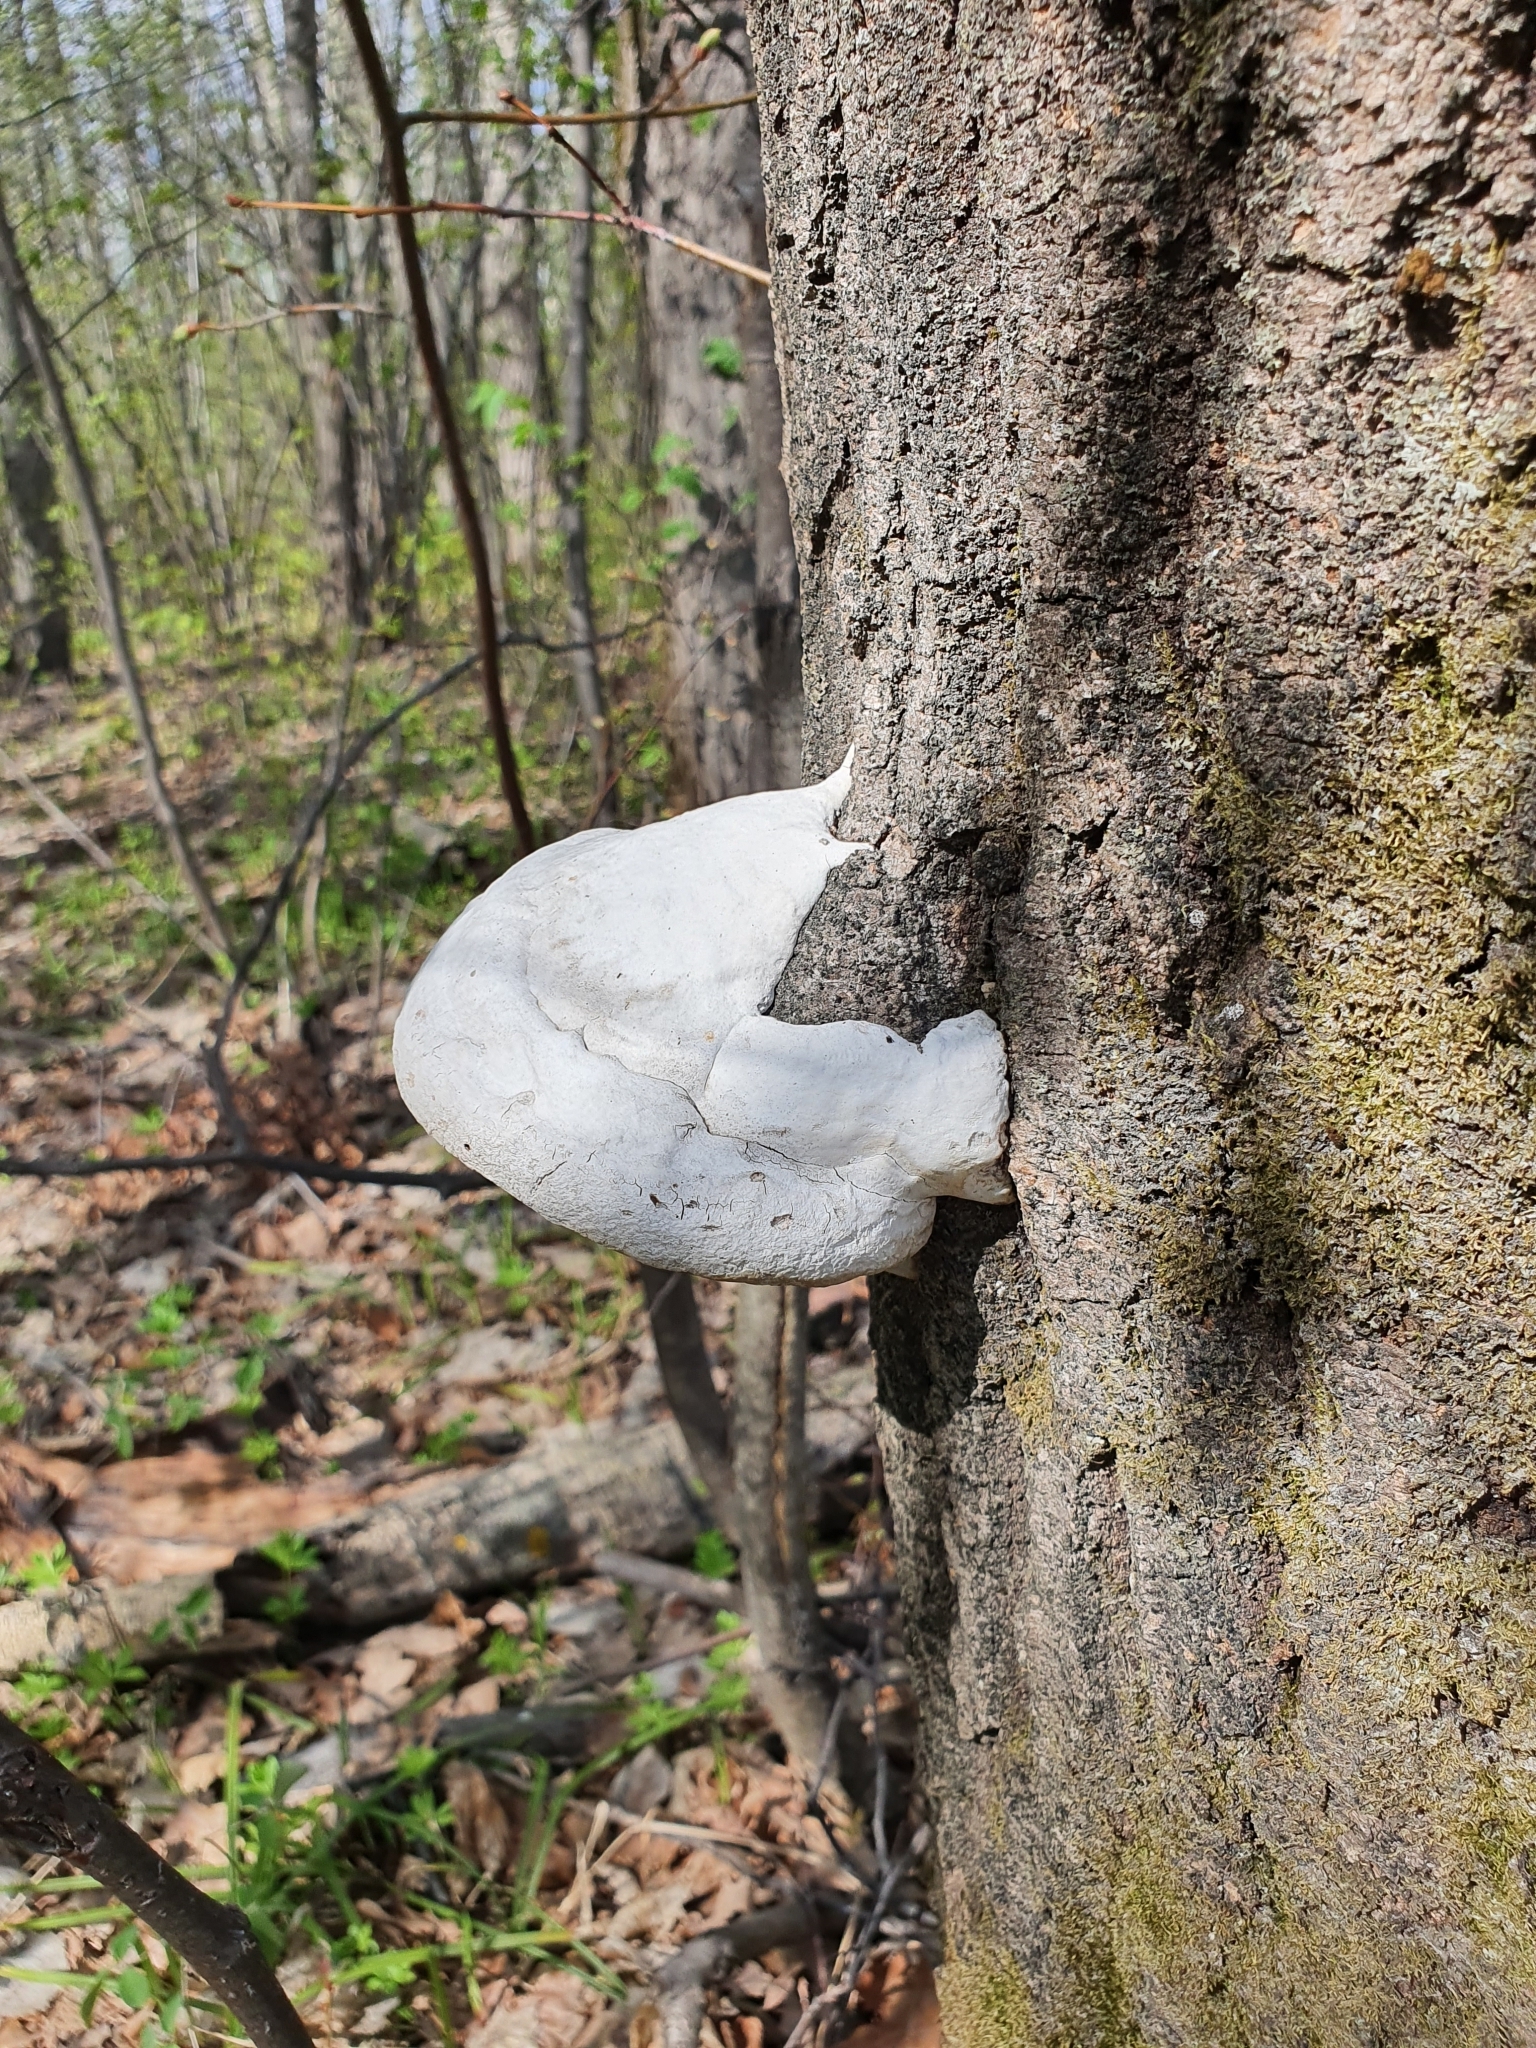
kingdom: Fungi
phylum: Basidiomycota
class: Agaricomycetes
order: Polyporales
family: Polyporaceae
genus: Fomes
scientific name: Fomes fomentarius
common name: Hoof fungus
